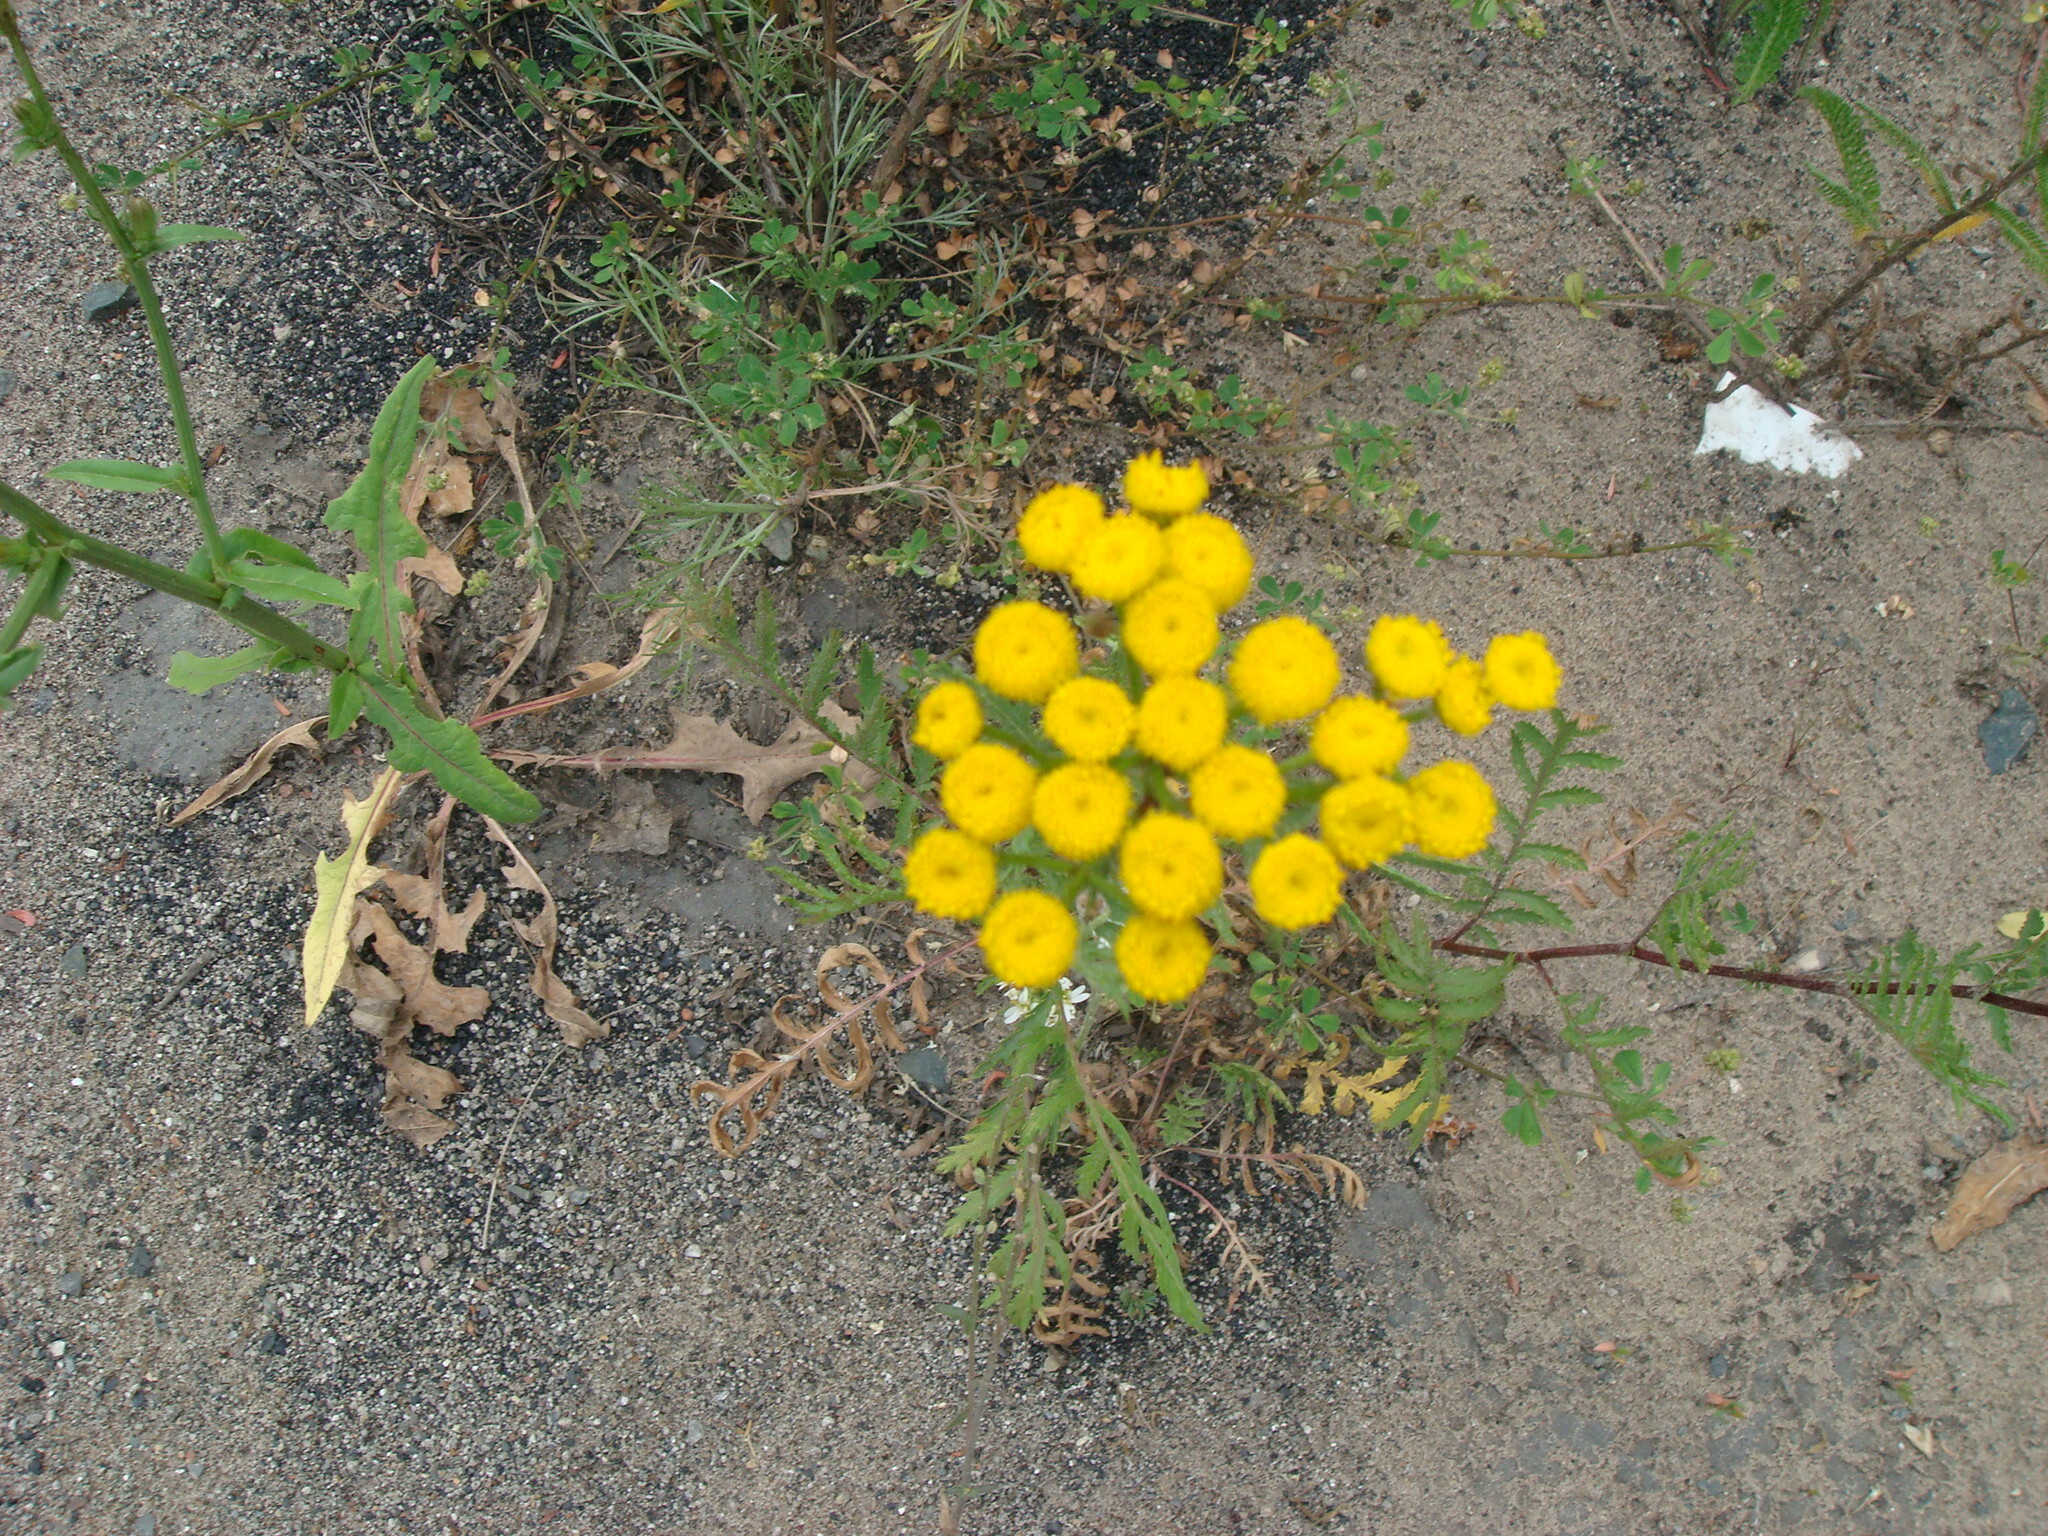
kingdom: Plantae
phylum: Tracheophyta
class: Magnoliopsida
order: Asterales
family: Asteraceae
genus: Tanacetum
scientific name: Tanacetum vulgare
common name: Common tansy
